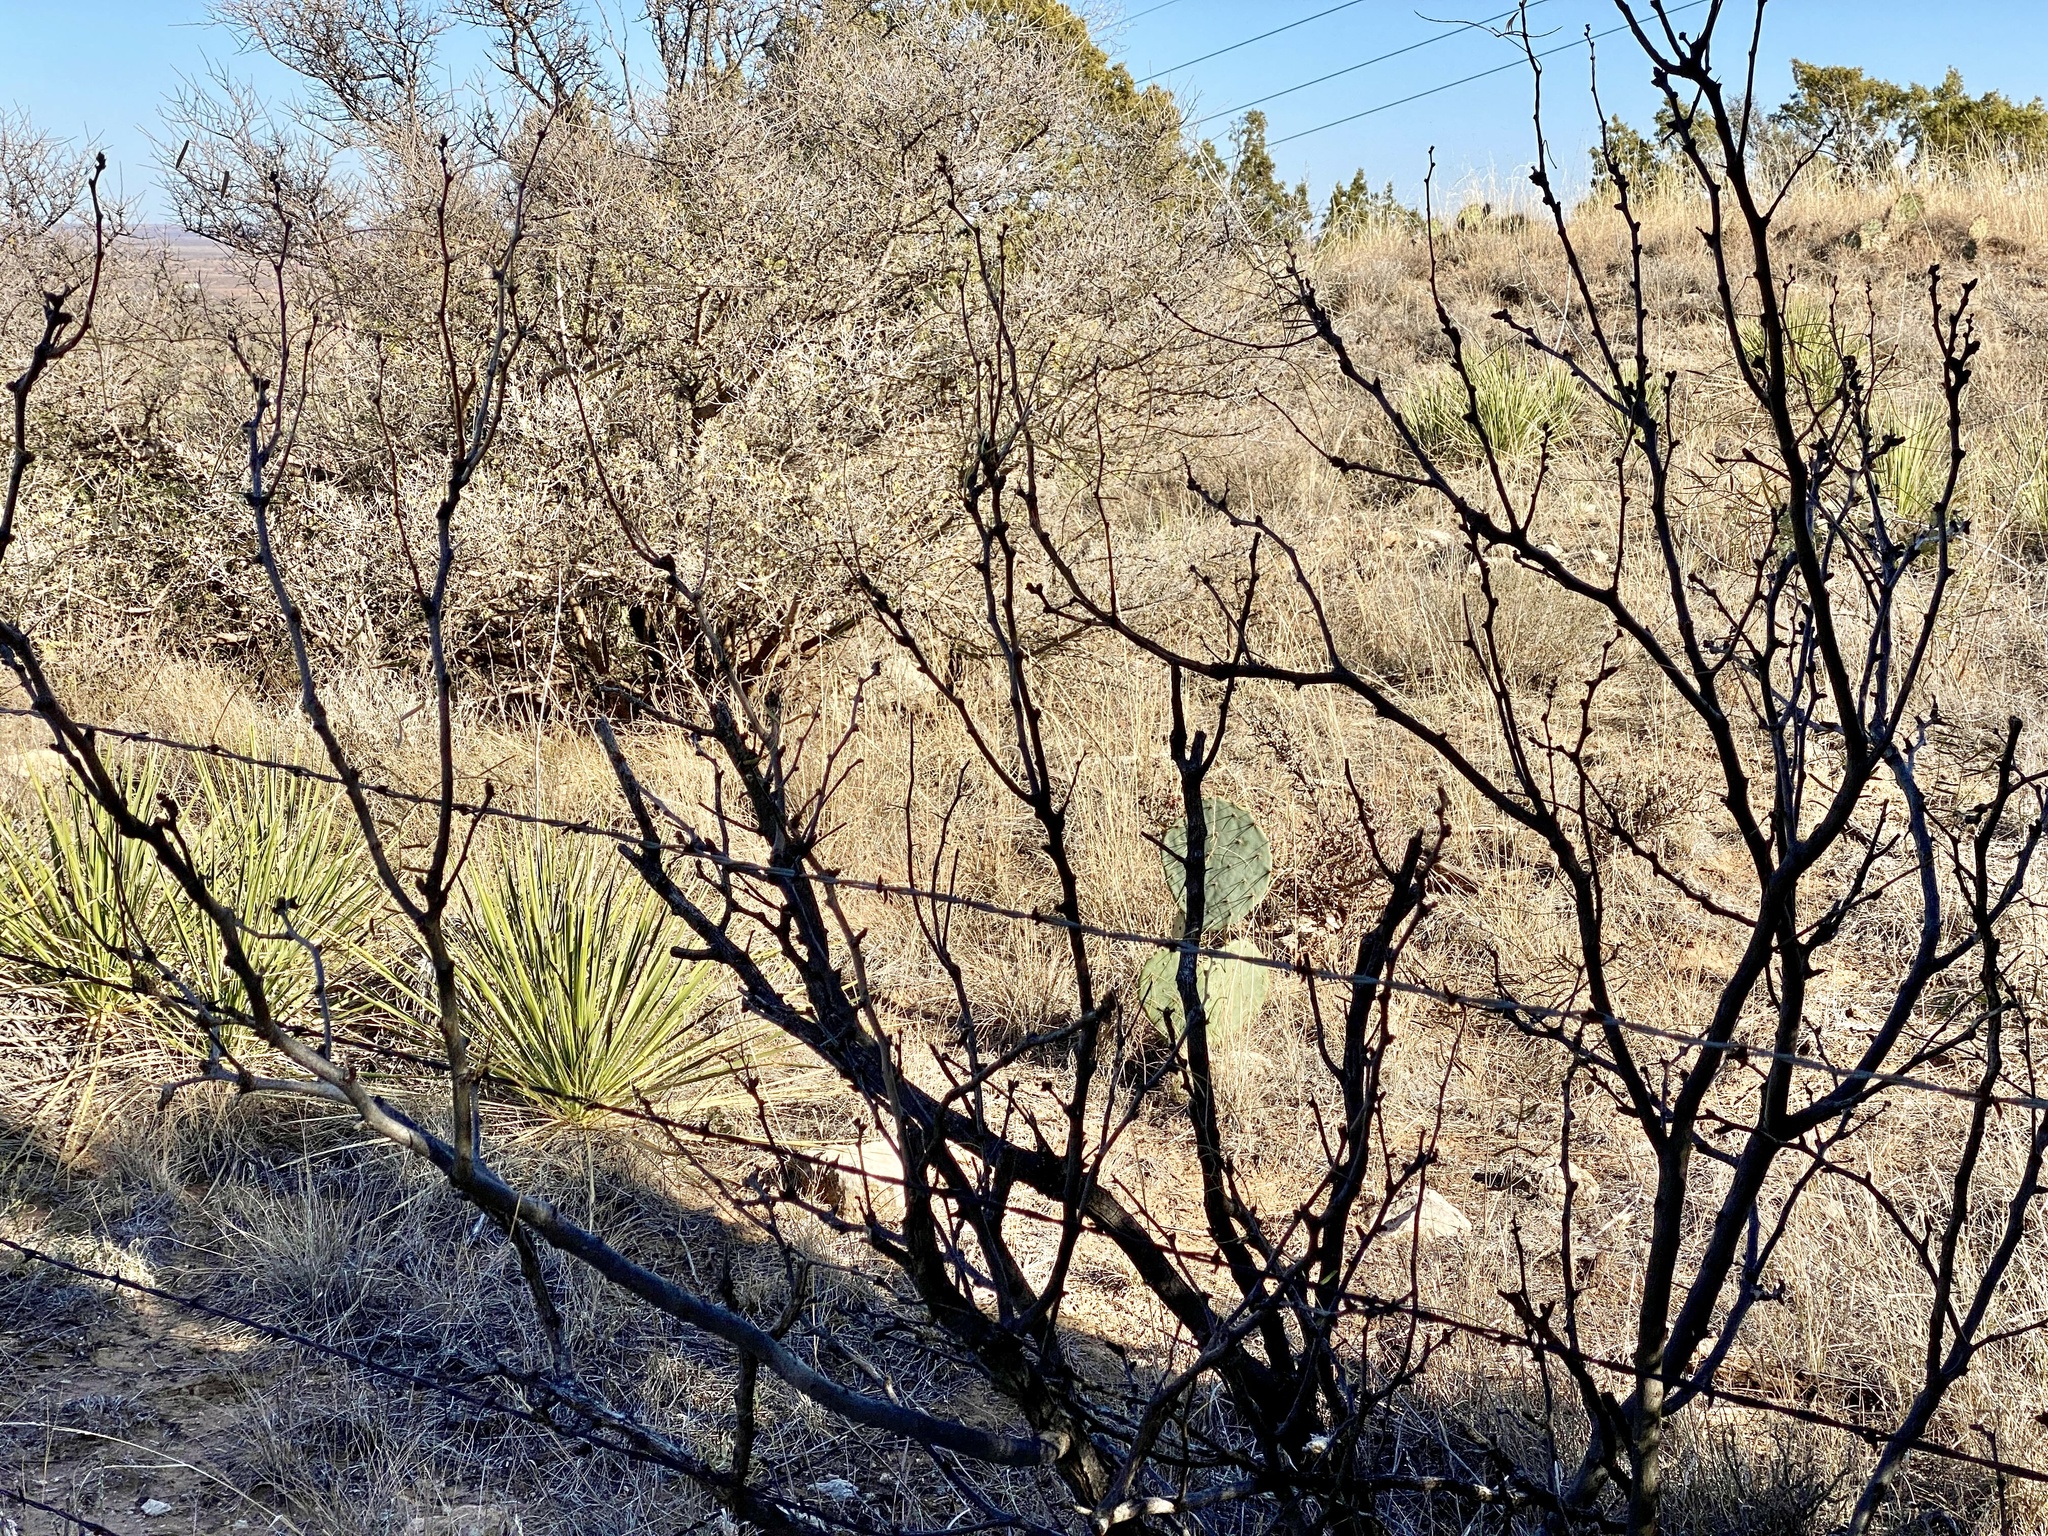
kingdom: Plantae
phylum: Tracheophyta
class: Magnoliopsida
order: Fabales
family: Fabaceae
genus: Prosopis
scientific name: Prosopis glandulosa
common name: Honey mesquite
